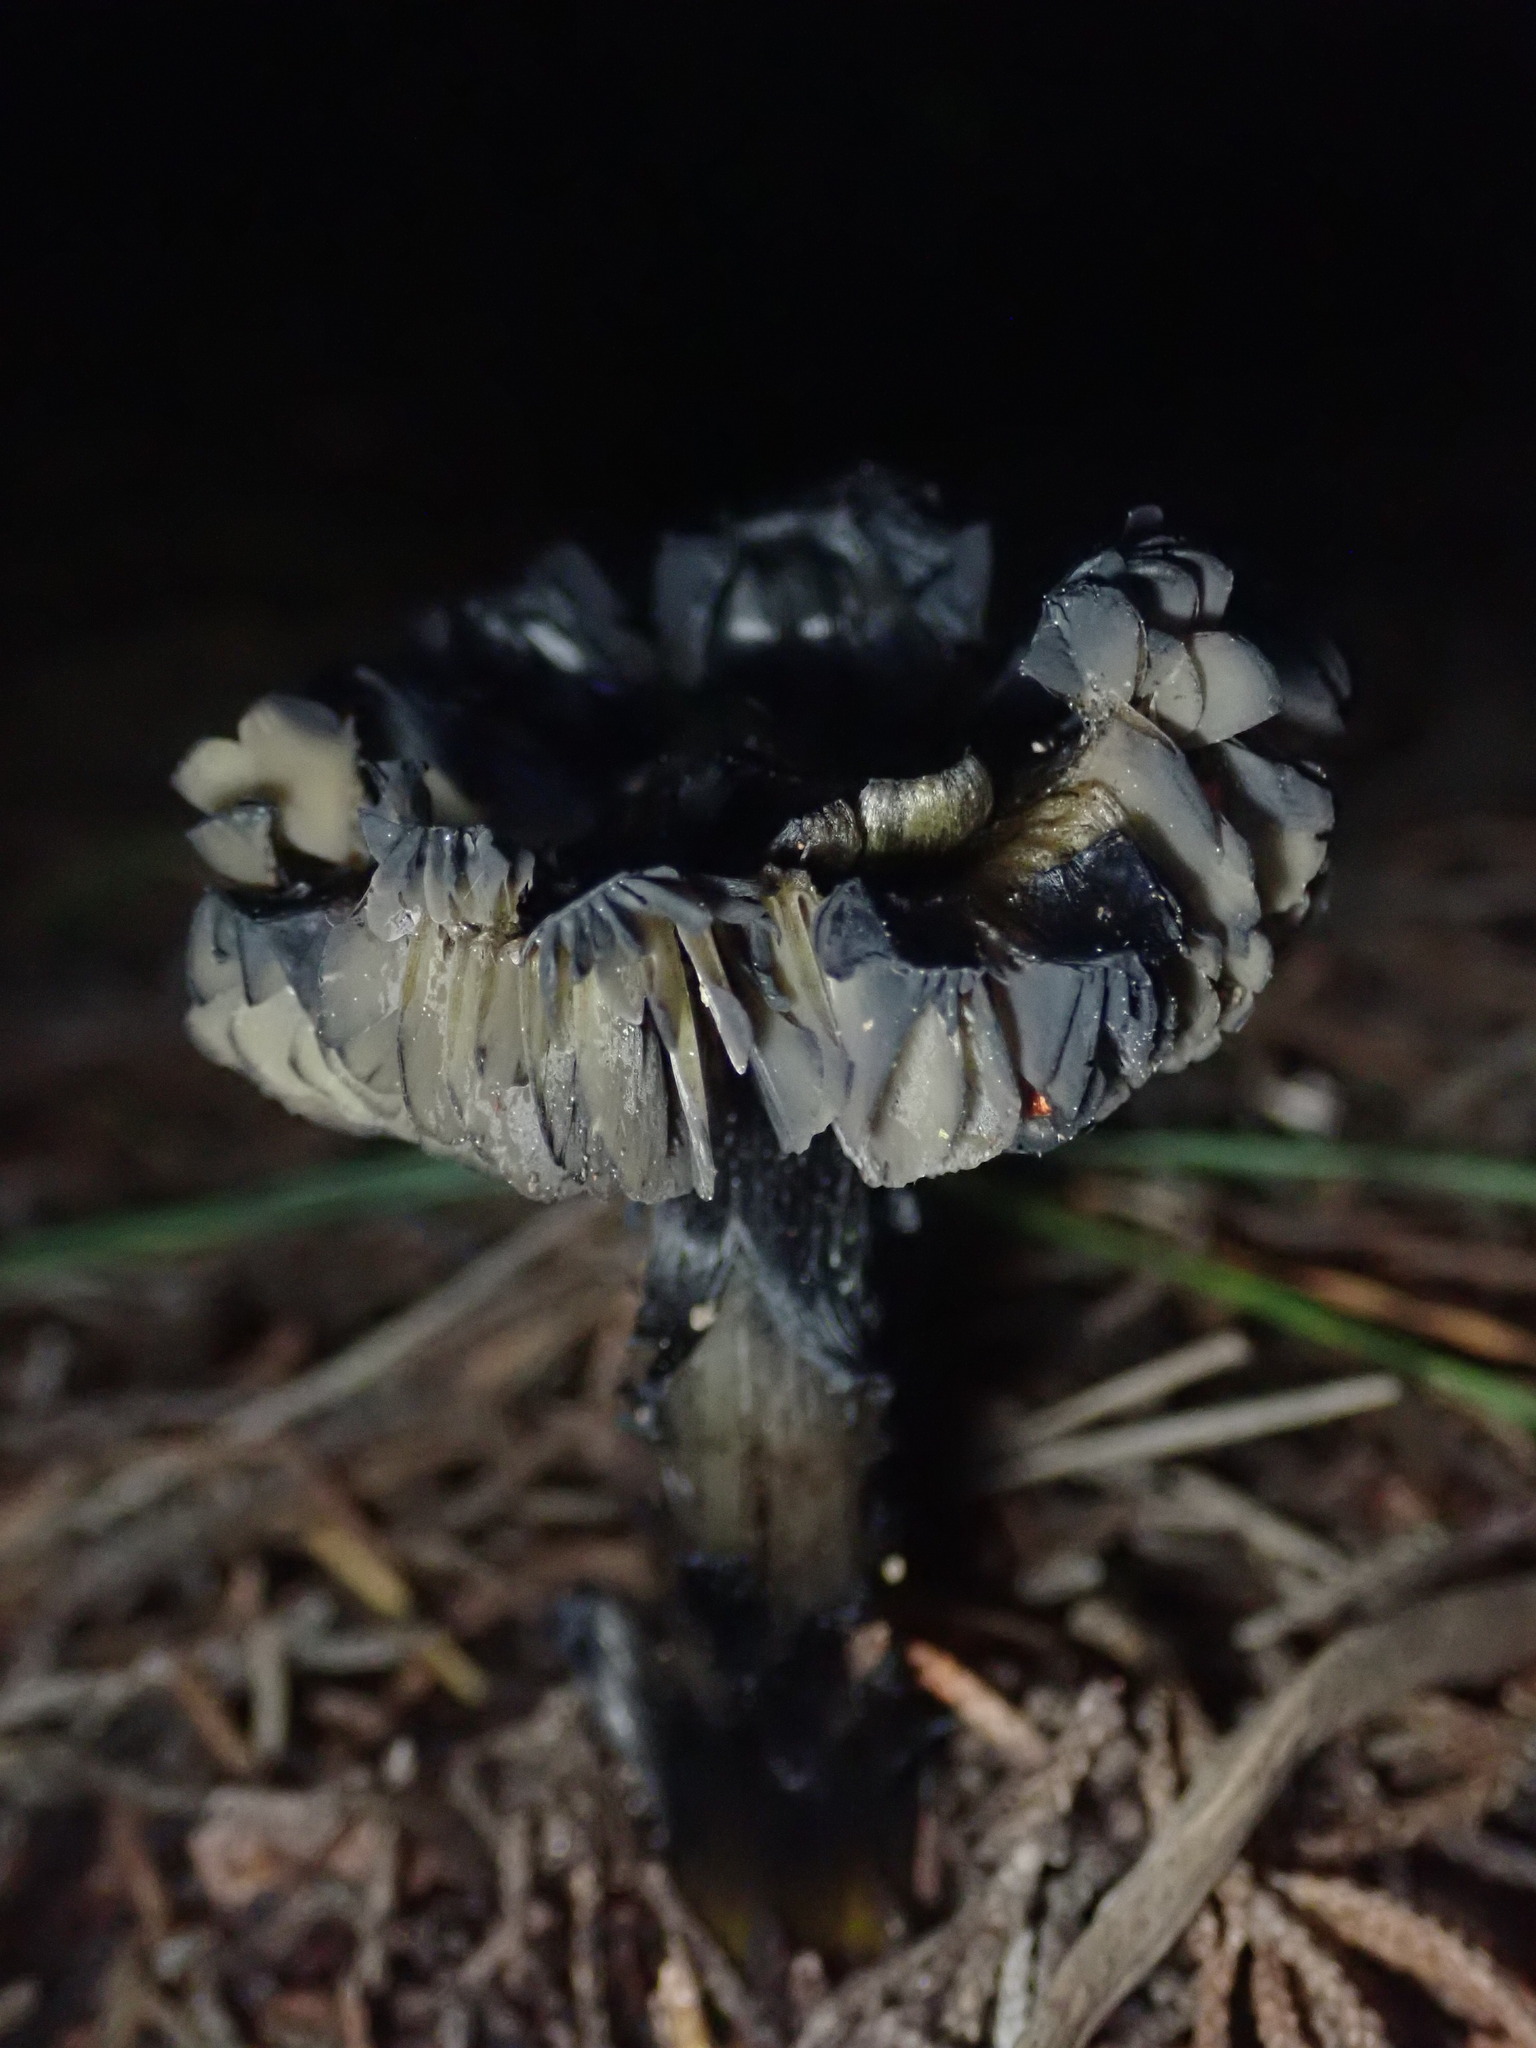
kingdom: Fungi
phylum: Basidiomycota
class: Agaricomycetes
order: Agaricales
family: Hygrophoraceae
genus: Hygrocybe
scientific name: Hygrocybe singeri
